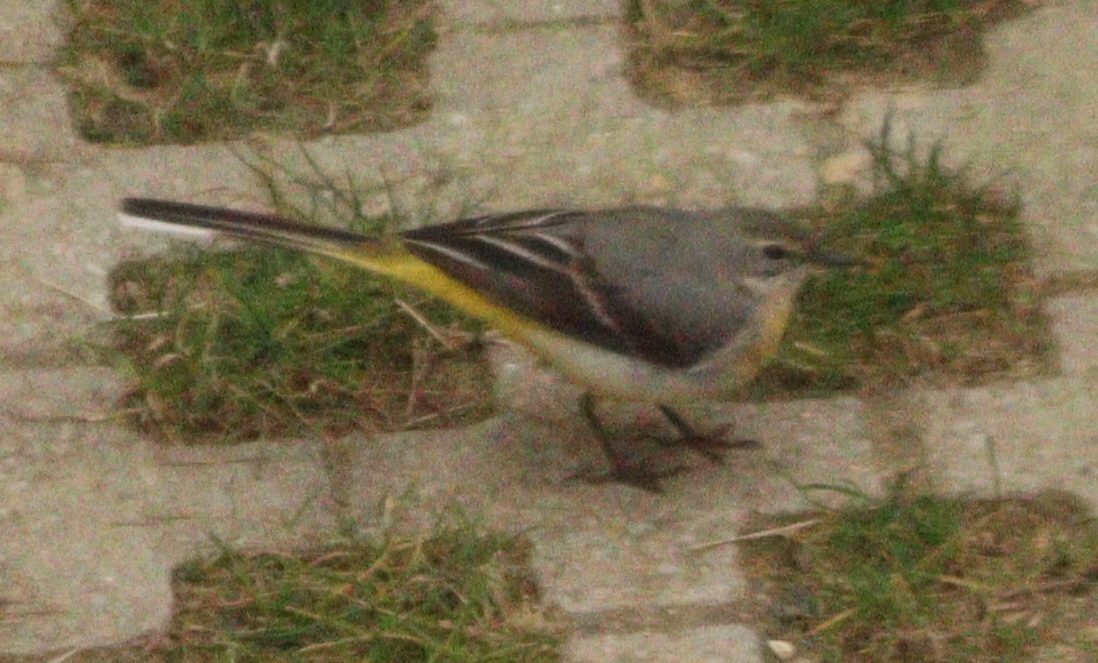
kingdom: Animalia
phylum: Chordata
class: Aves
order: Passeriformes
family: Motacillidae
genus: Motacilla
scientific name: Motacilla cinerea
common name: Grey wagtail
